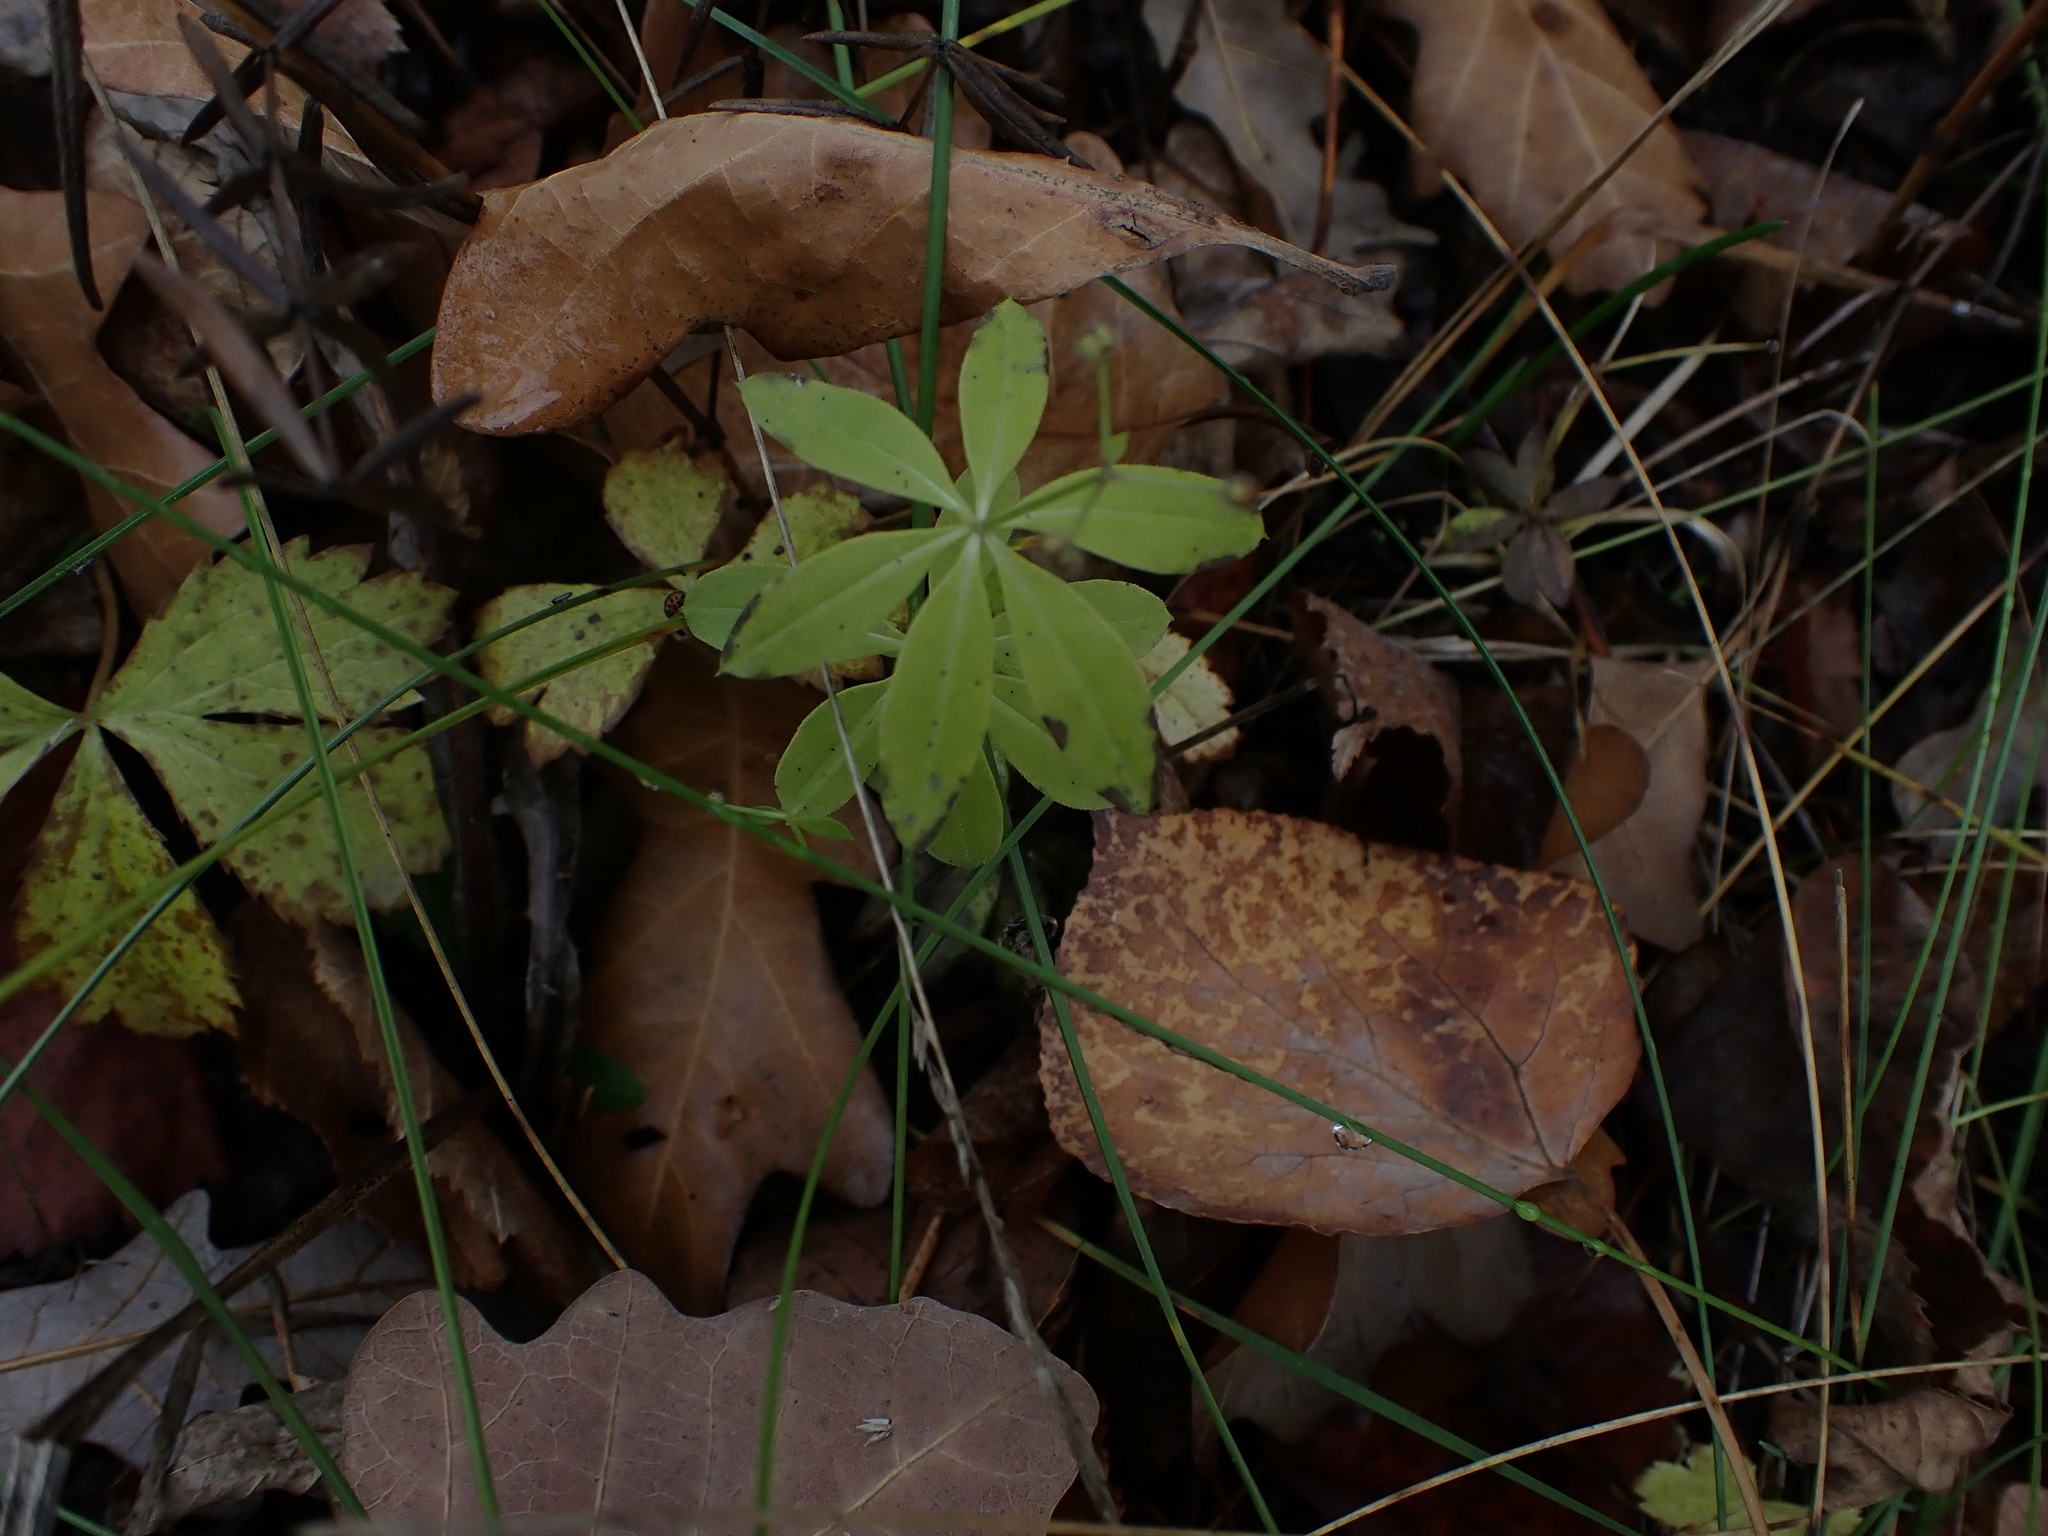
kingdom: Plantae
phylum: Tracheophyta
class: Magnoliopsida
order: Gentianales
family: Rubiaceae
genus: Galium
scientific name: Galium triflorum
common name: Fragrant bedstraw
